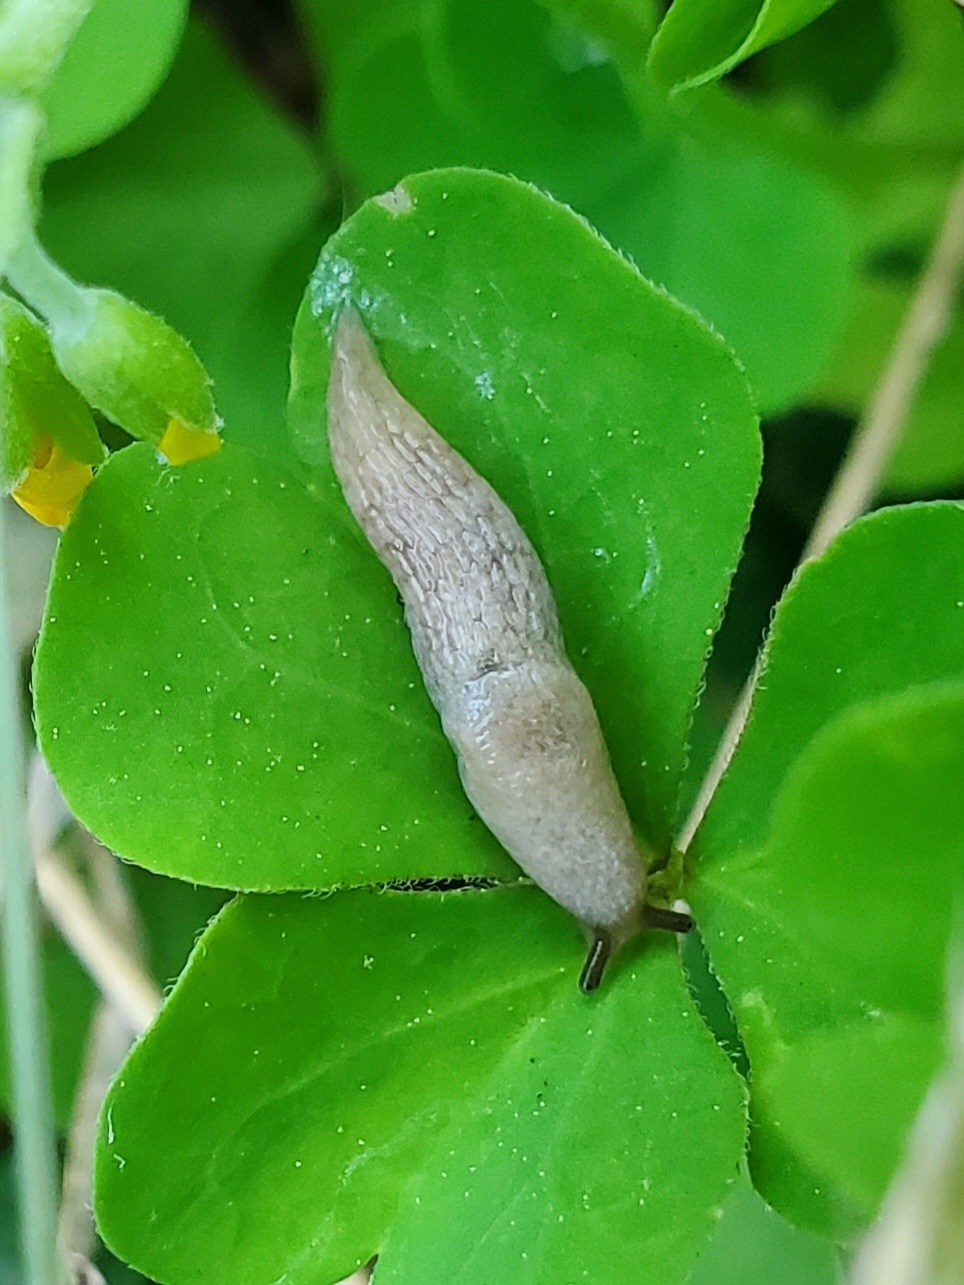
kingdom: Animalia
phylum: Mollusca
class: Gastropoda
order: Stylommatophora
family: Agriolimacidae
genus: Deroceras
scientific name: Deroceras reticulatum
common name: Gray field slug
